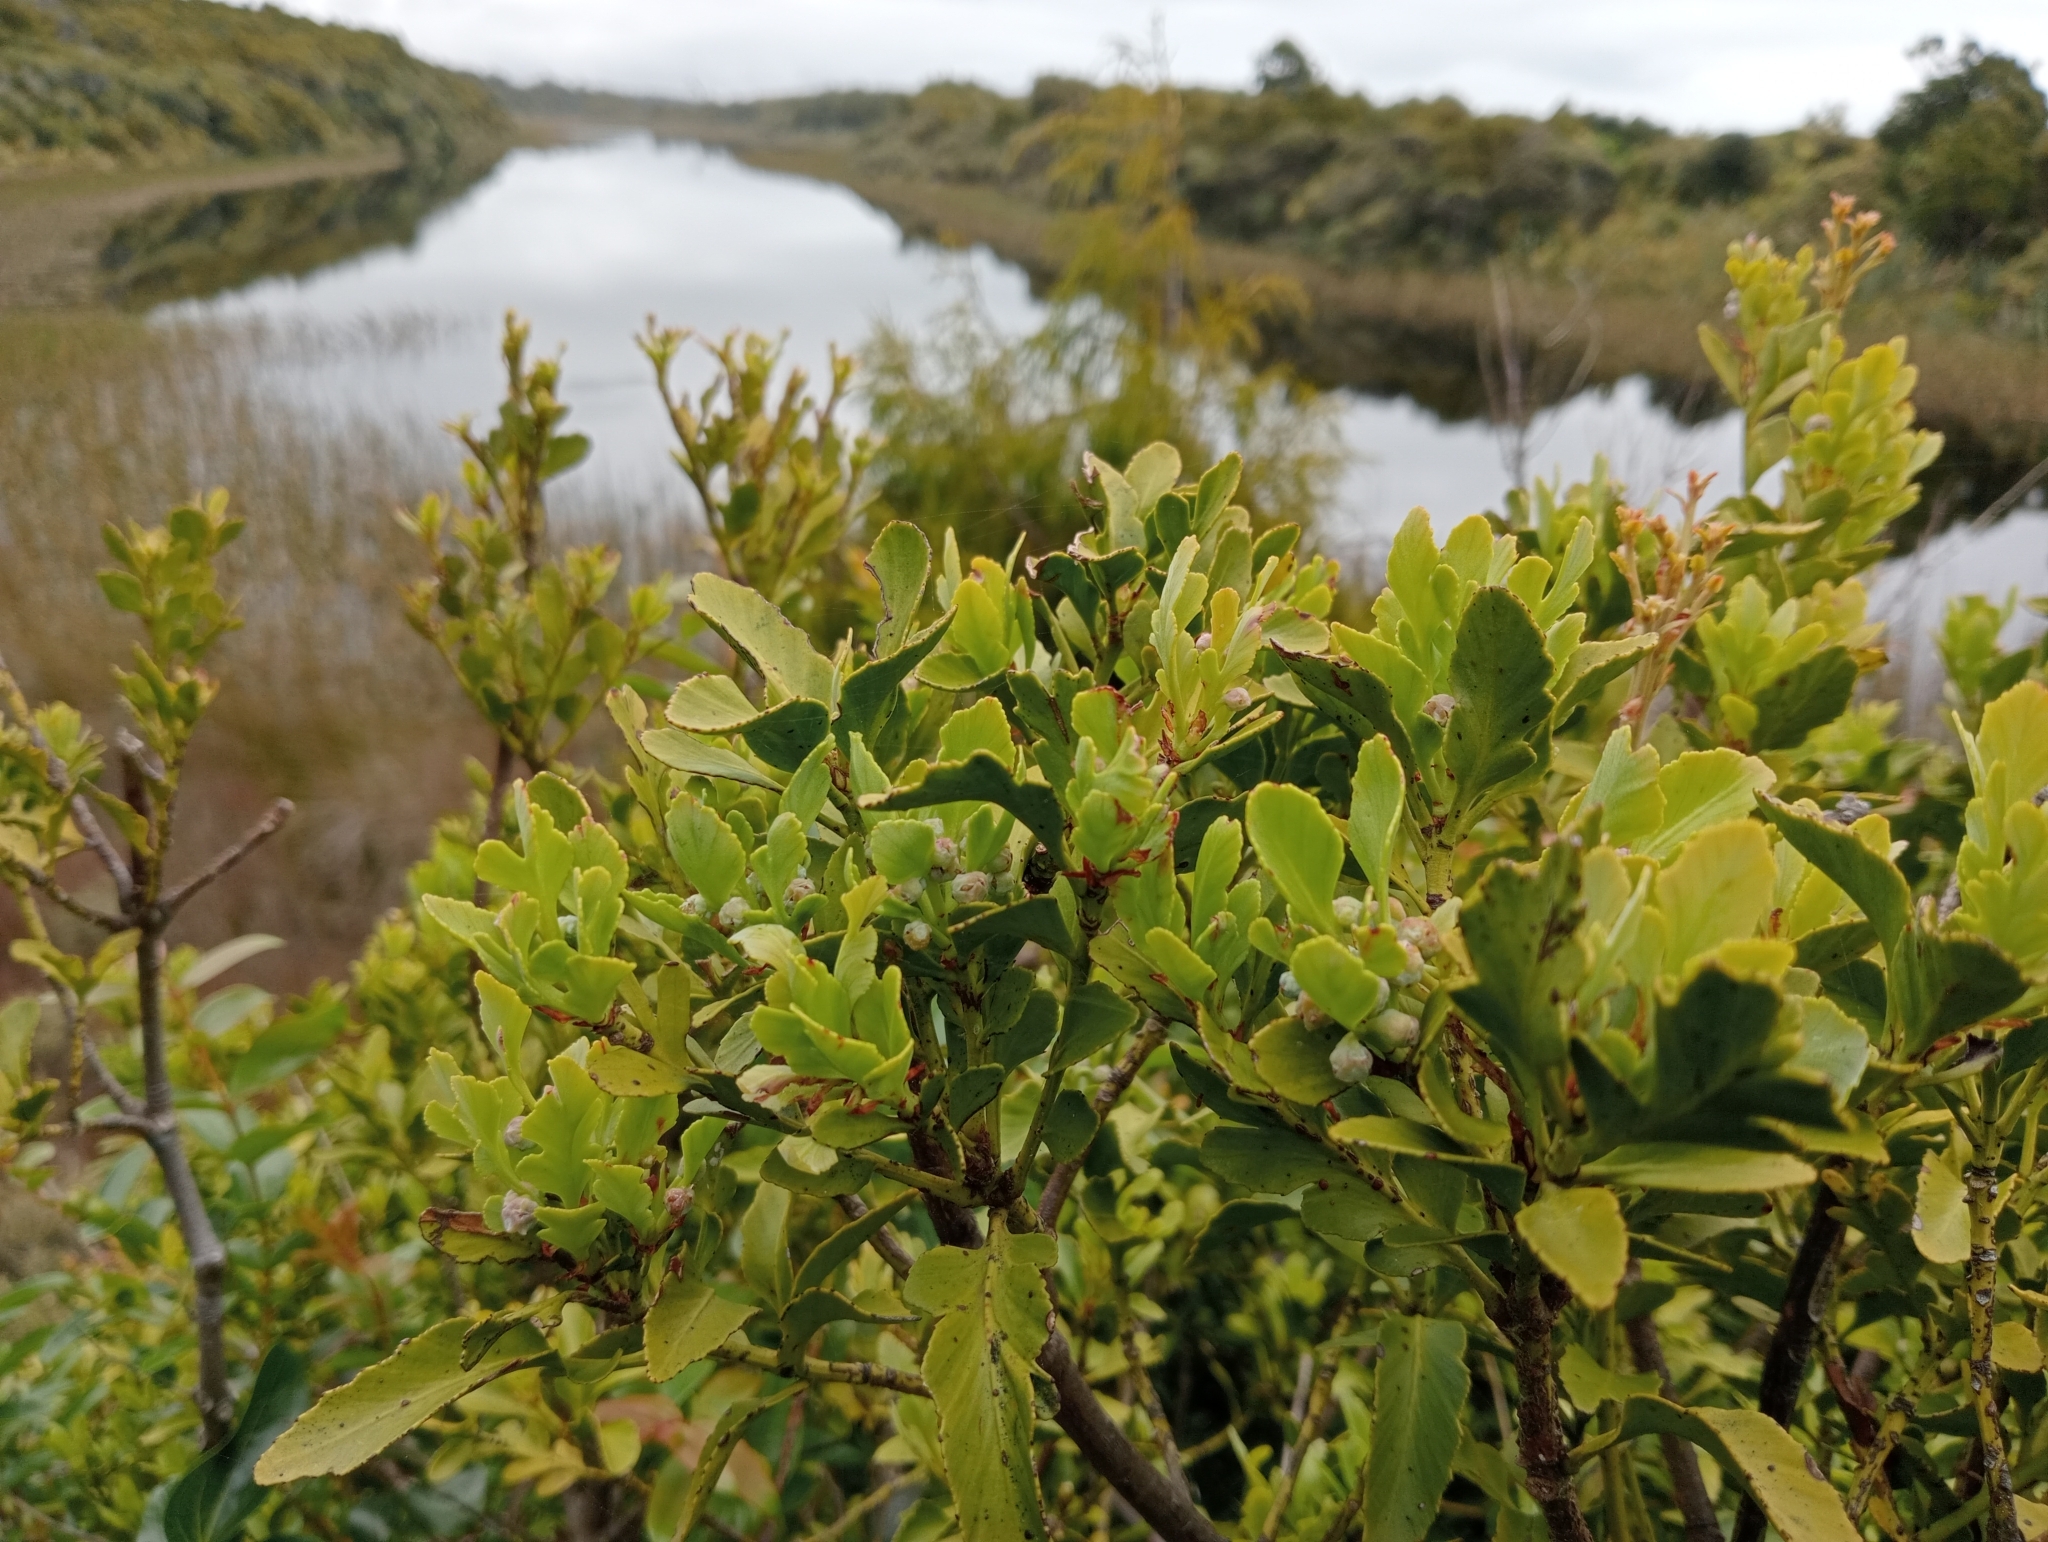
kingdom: Plantae
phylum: Tracheophyta
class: Pinopsida
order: Pinales
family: Phyllocladaceae
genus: Phyllocladus
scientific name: Phyllocladus trichomanoides
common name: Celery pine
